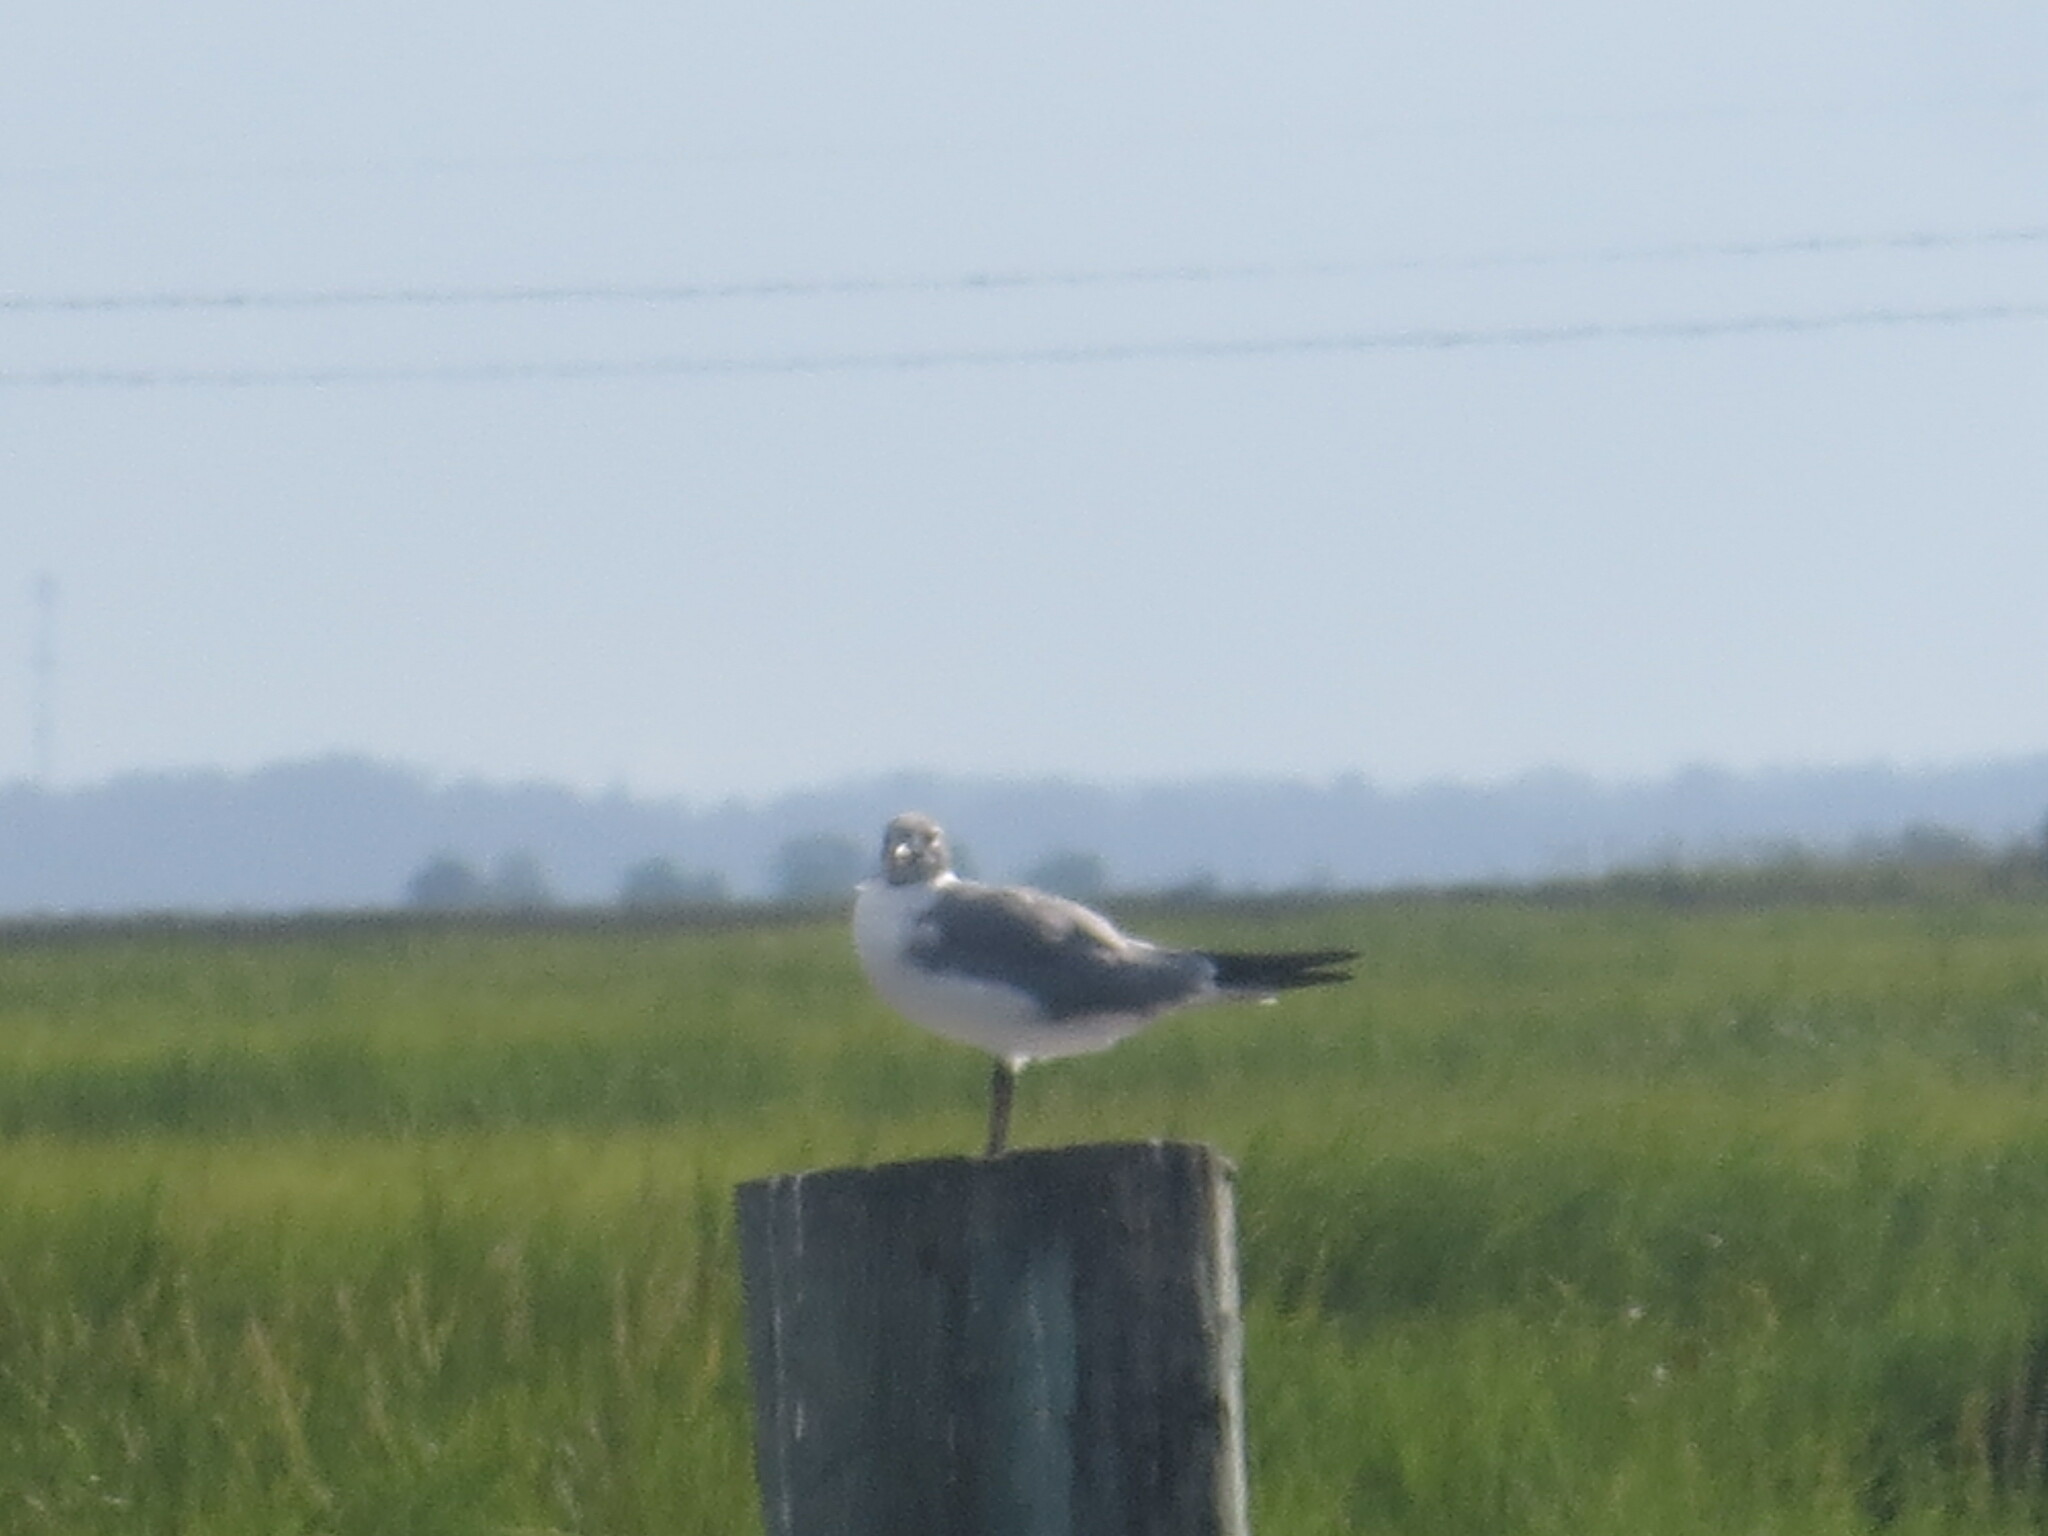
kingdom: Animalia
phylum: Chordata
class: Aves
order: Charadriiformes
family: Laridae
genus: Leucophaeus
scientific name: Leucophaeus atricilla
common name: Laughing gull
